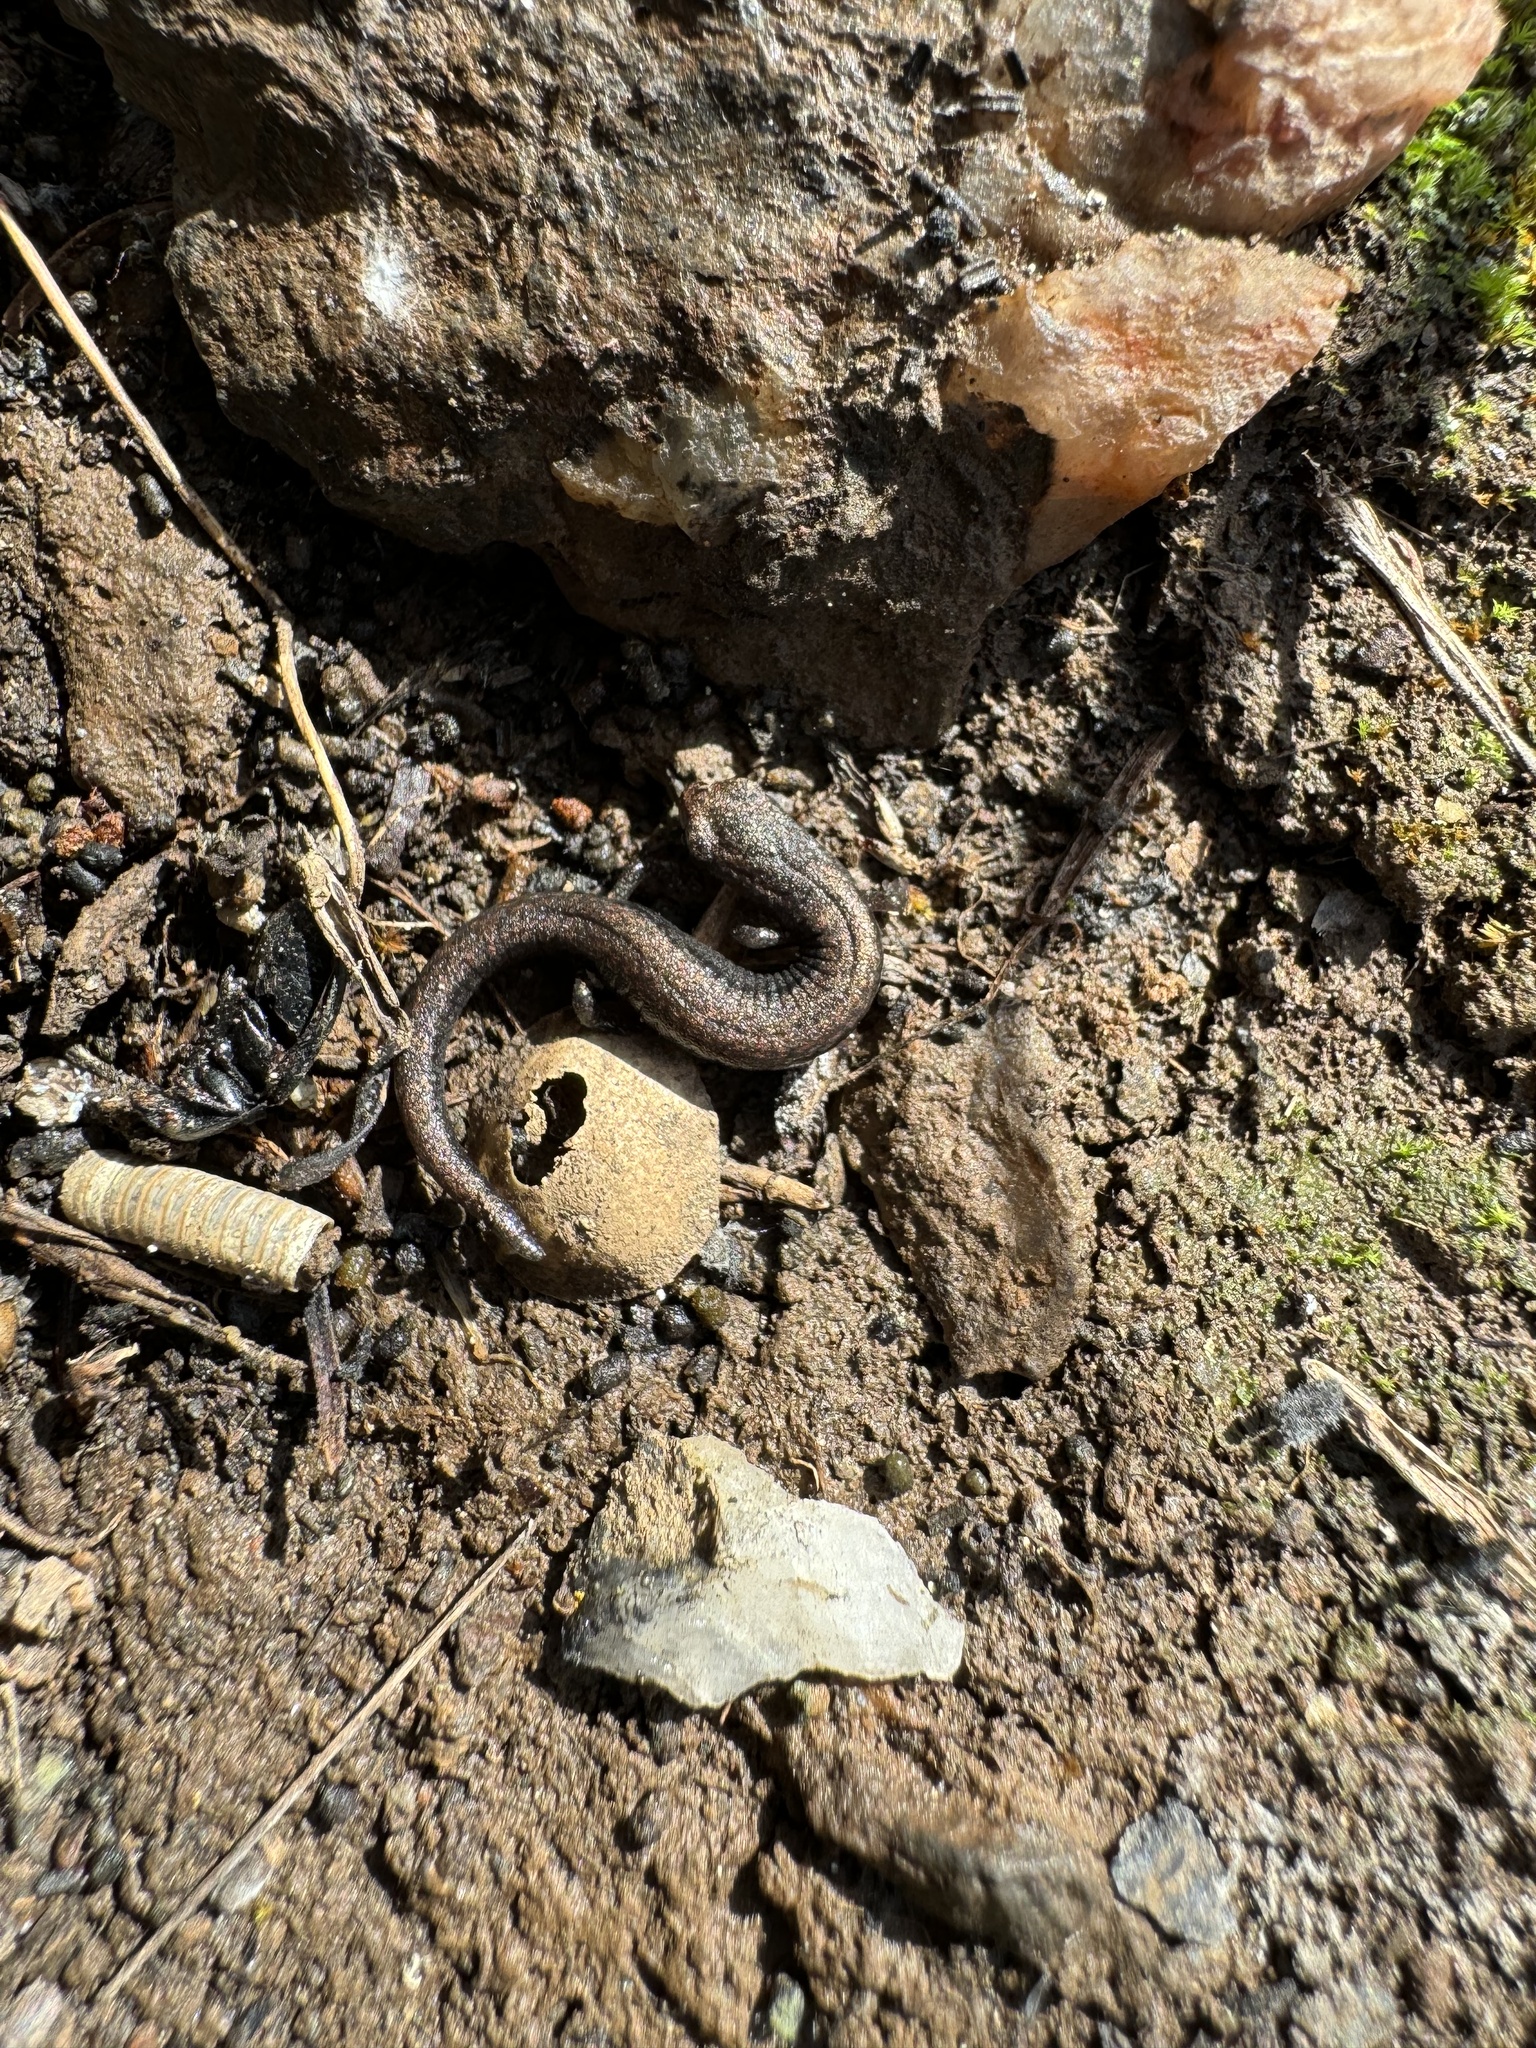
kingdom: Animalia
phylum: Chordata
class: Amphibia
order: Caudata
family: Plethodontidae
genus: Batrachoseps
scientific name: Batrachoseps major
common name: Garden slender salamander
